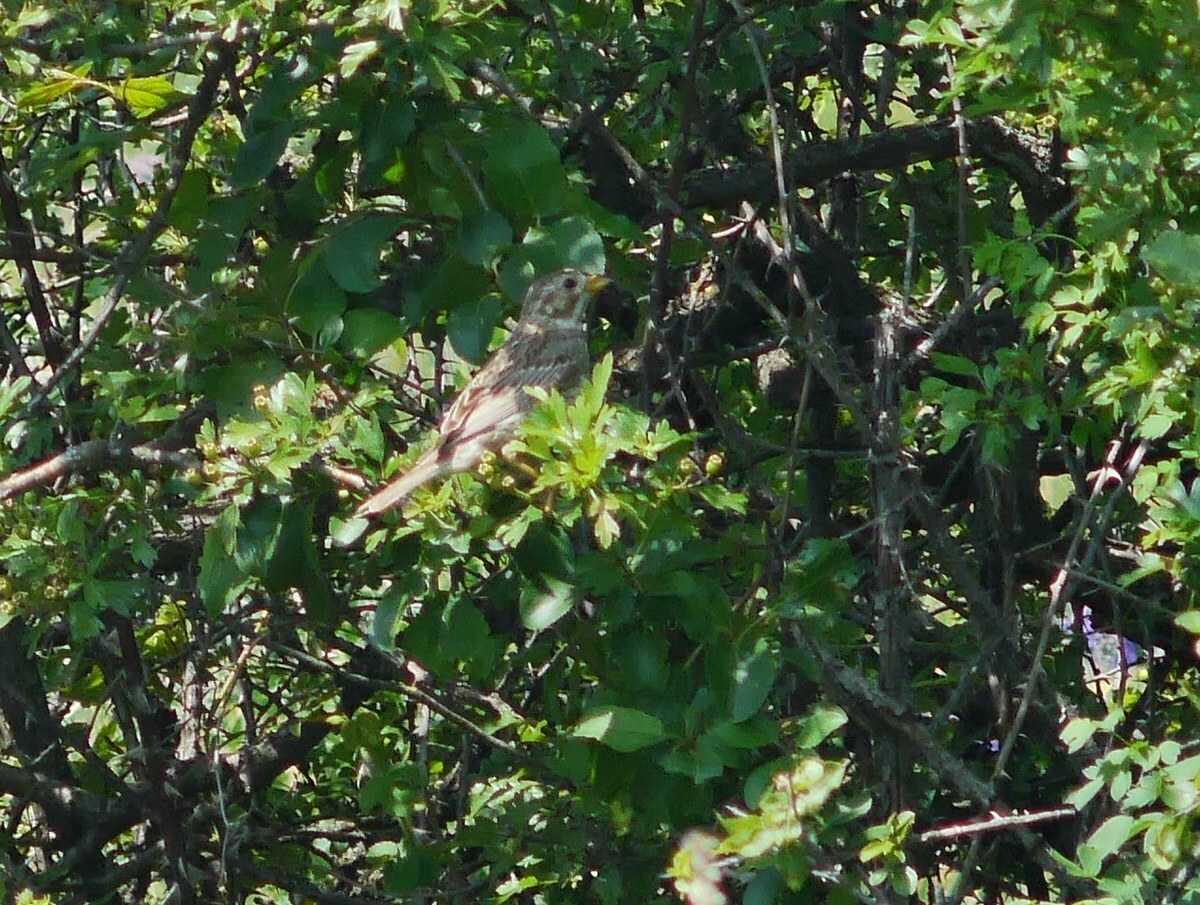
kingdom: Animalia
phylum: Chordata
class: Aves
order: Passeriformes
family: Emberizidae
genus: Emberiza
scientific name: Emberiza calandra
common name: Corn bunting
